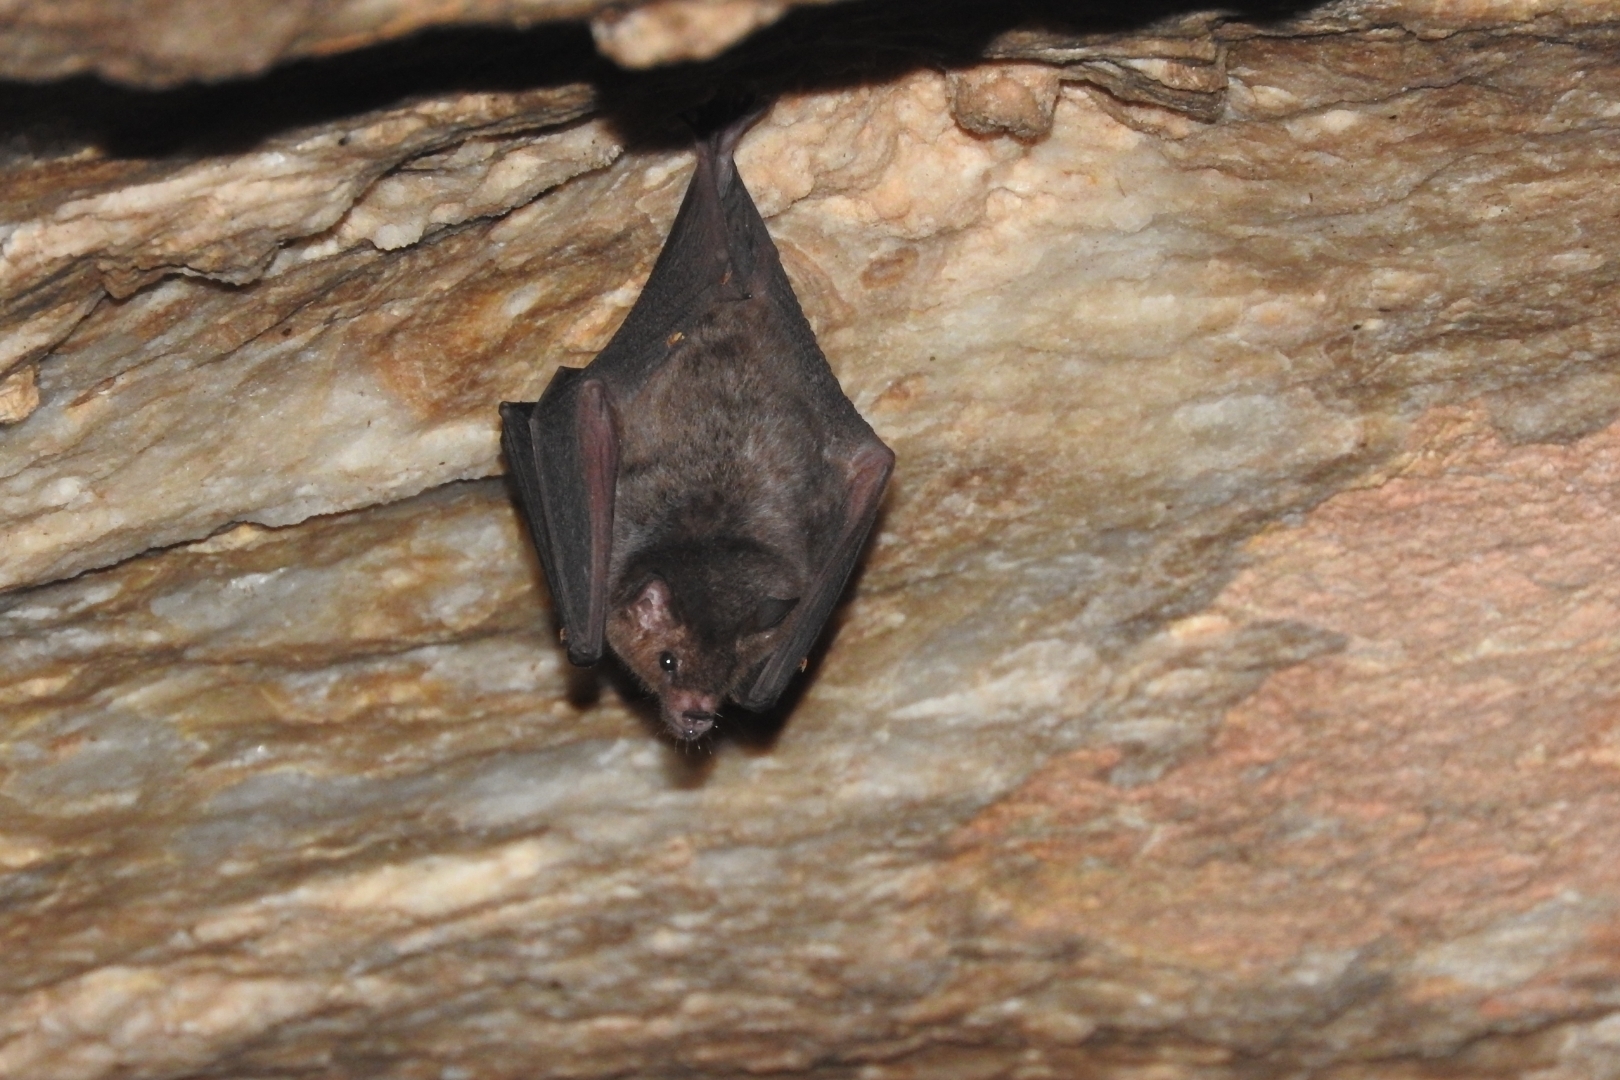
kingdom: Animalia
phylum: Chordata
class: Mammalia
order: Chiroptera
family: Phyllostomidae
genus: Glossophaga
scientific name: Glossophaga soricina
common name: Pallas's long-tongued bat
